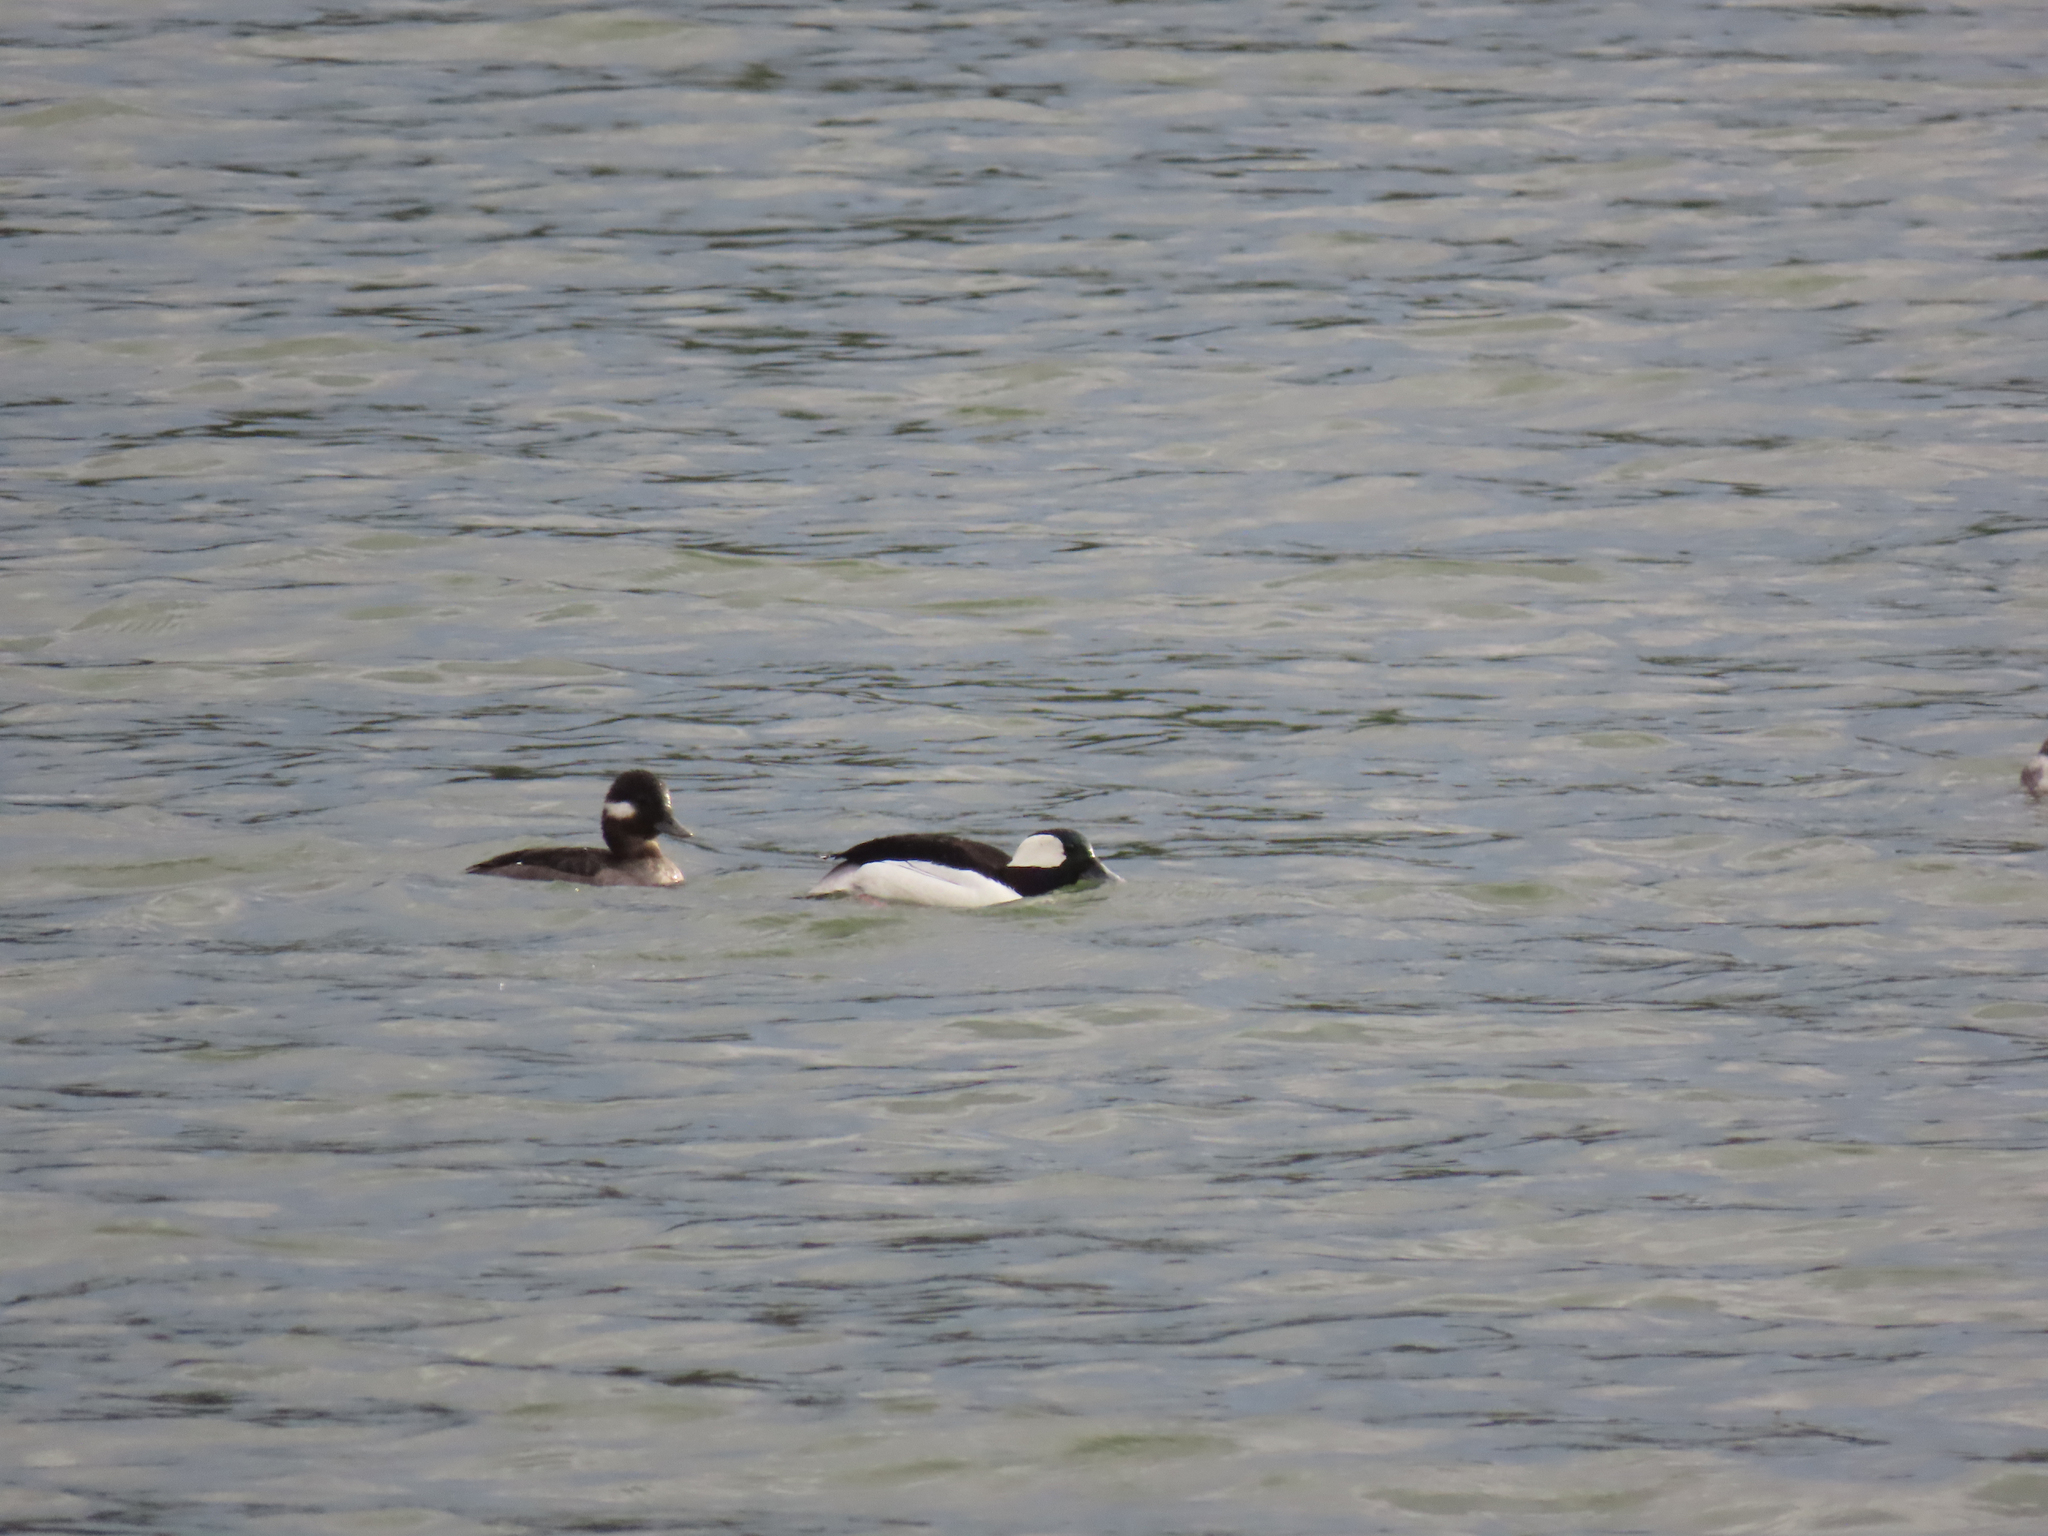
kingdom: Animalia
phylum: Chordata
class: Aves
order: Anseriformes
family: Anatidae
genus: Bucephala
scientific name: Bucephala albeola
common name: Bufflehead
